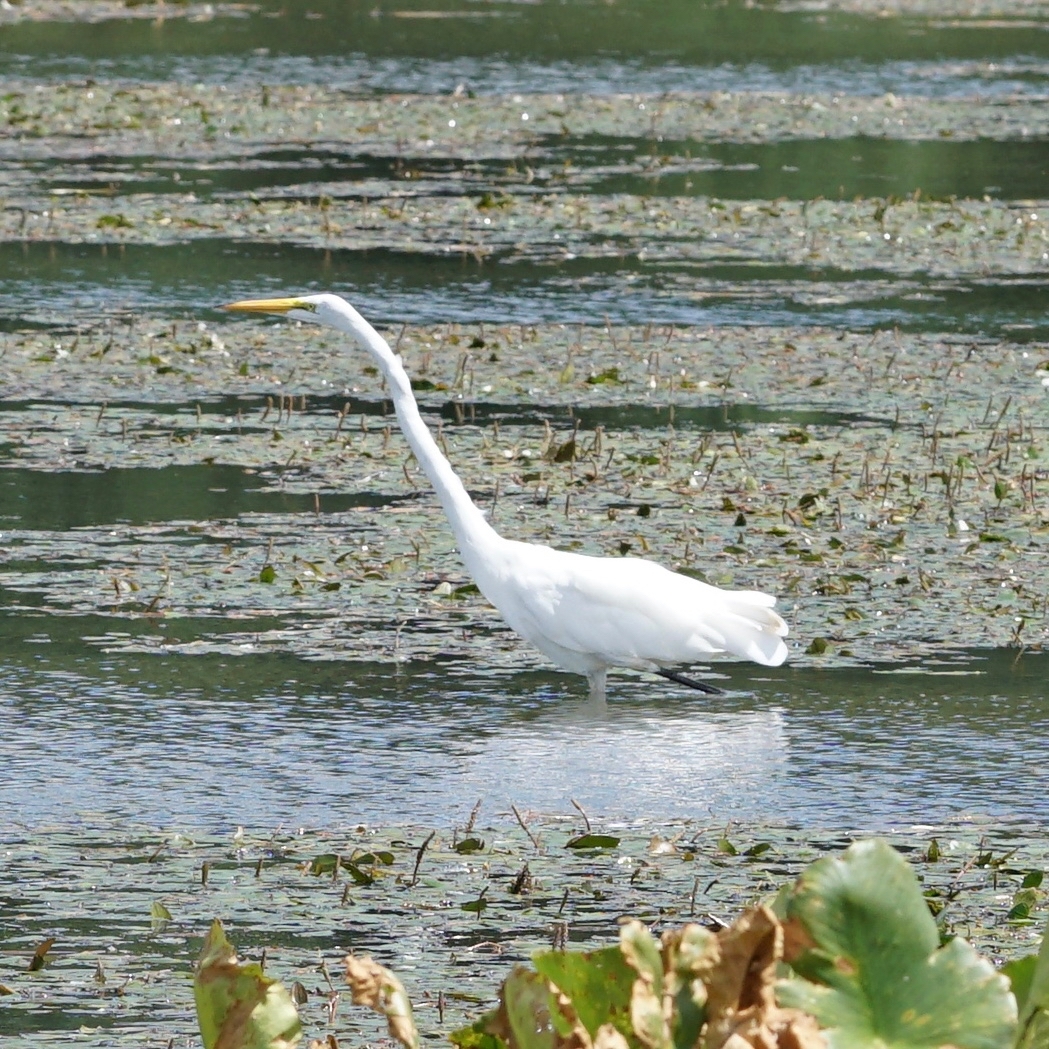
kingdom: Animalia
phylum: Chordata
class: Aves
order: Pelecaniformes
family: Ardeidae
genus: Ardea
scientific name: Ardea alba
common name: Great egret
